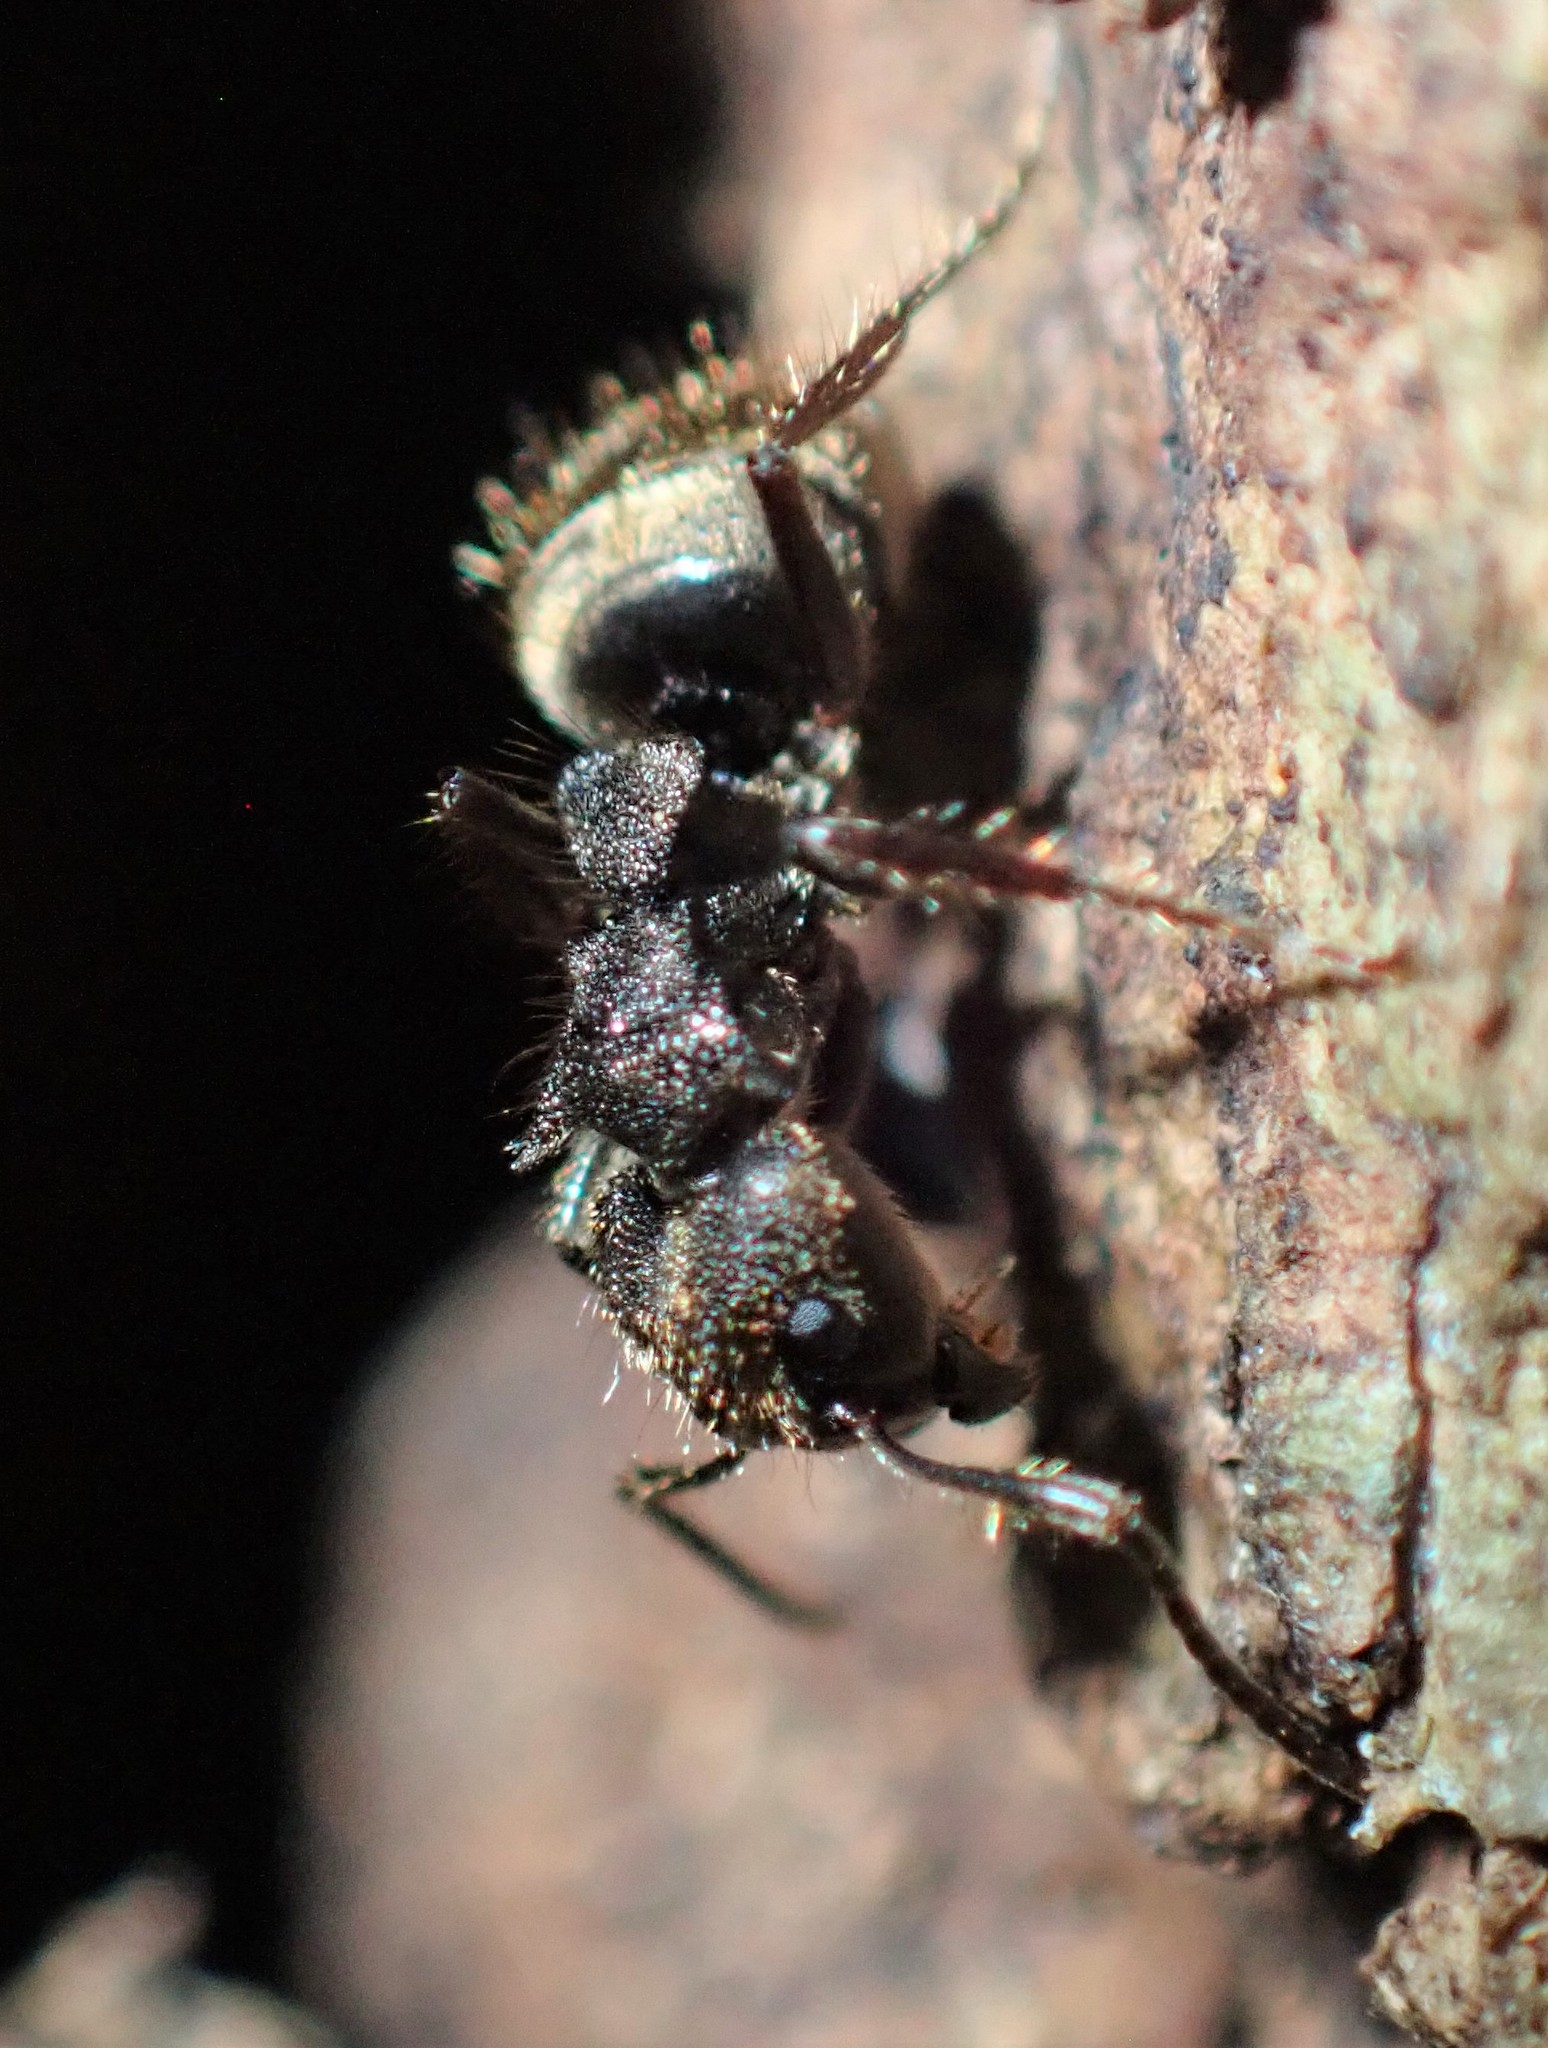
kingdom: Animalia
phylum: Arthropoda
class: Insecta
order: Hymenoptera
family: Formicidae
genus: Dolichoderus
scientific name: Dolichoderus bispinosus
